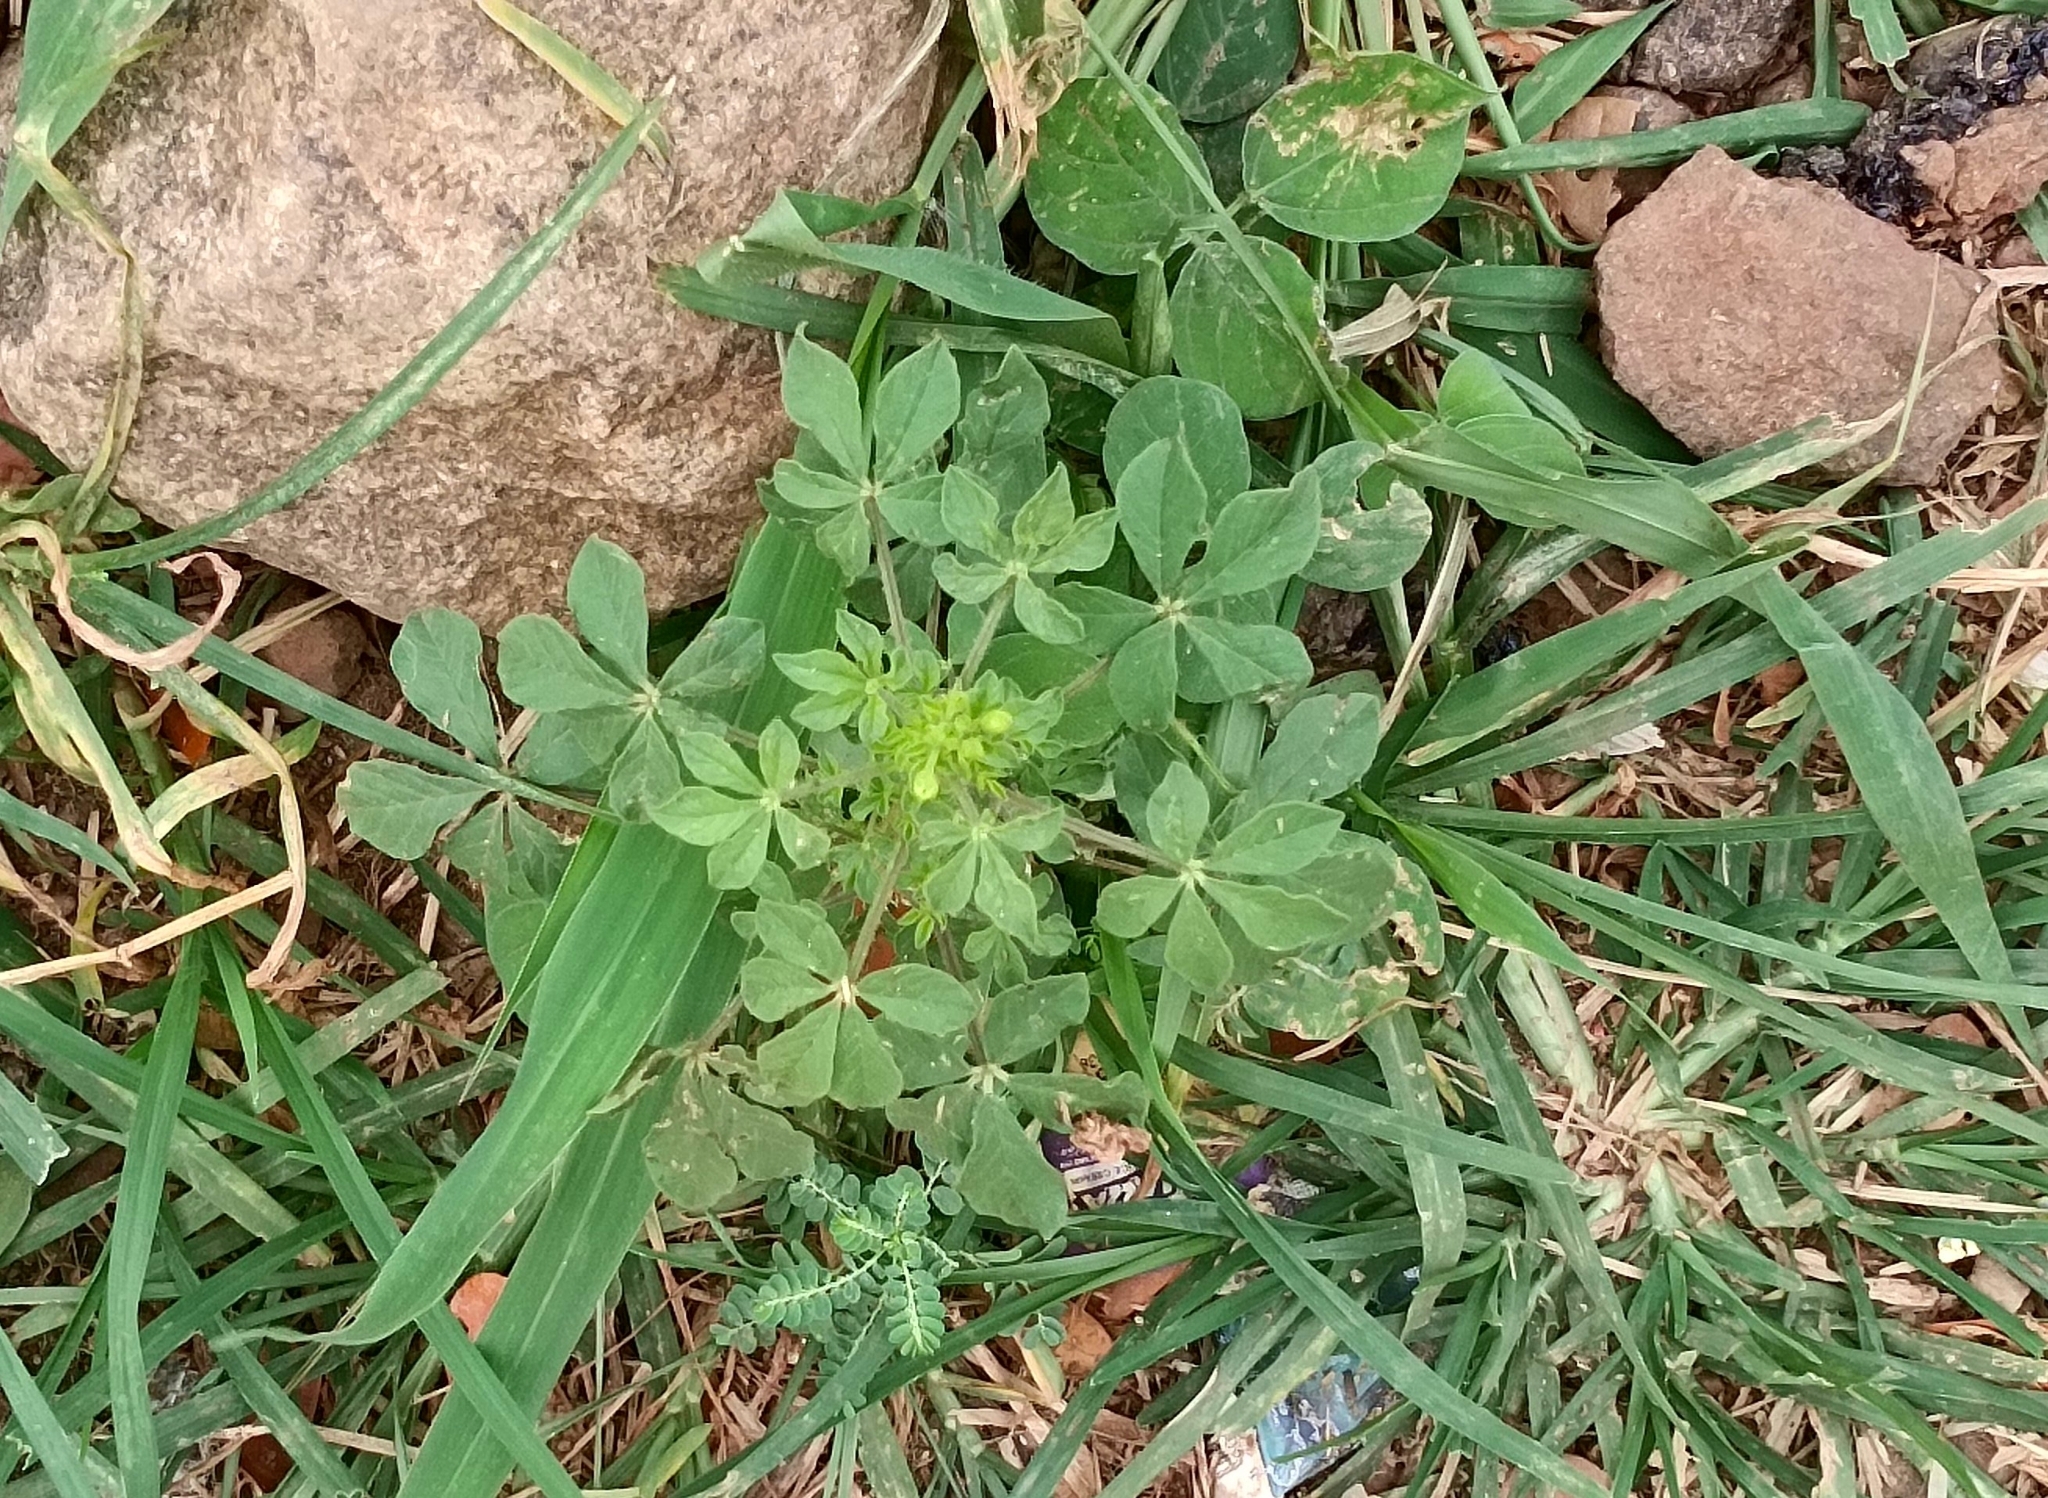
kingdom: Plantae
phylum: Tracheophyta
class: Magnoliopsida
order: Brassicales
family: Cleomaceae
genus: Arivela
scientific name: Arivela viscosa
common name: Asian spiderflower
